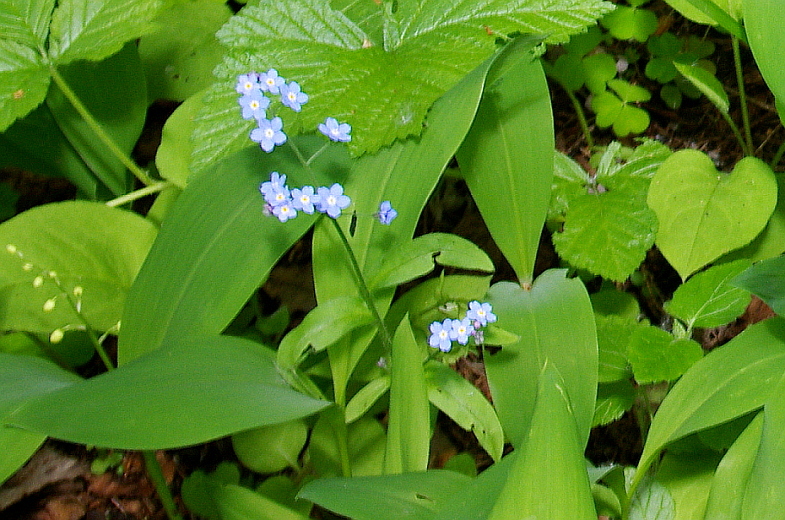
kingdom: Plantae
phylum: Tracheophyta
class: Magnoliopsida
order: Boraginales
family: Boraginaceae
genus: Myosotis
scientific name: Myosotis sylvatica
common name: Wood forget-me-not
